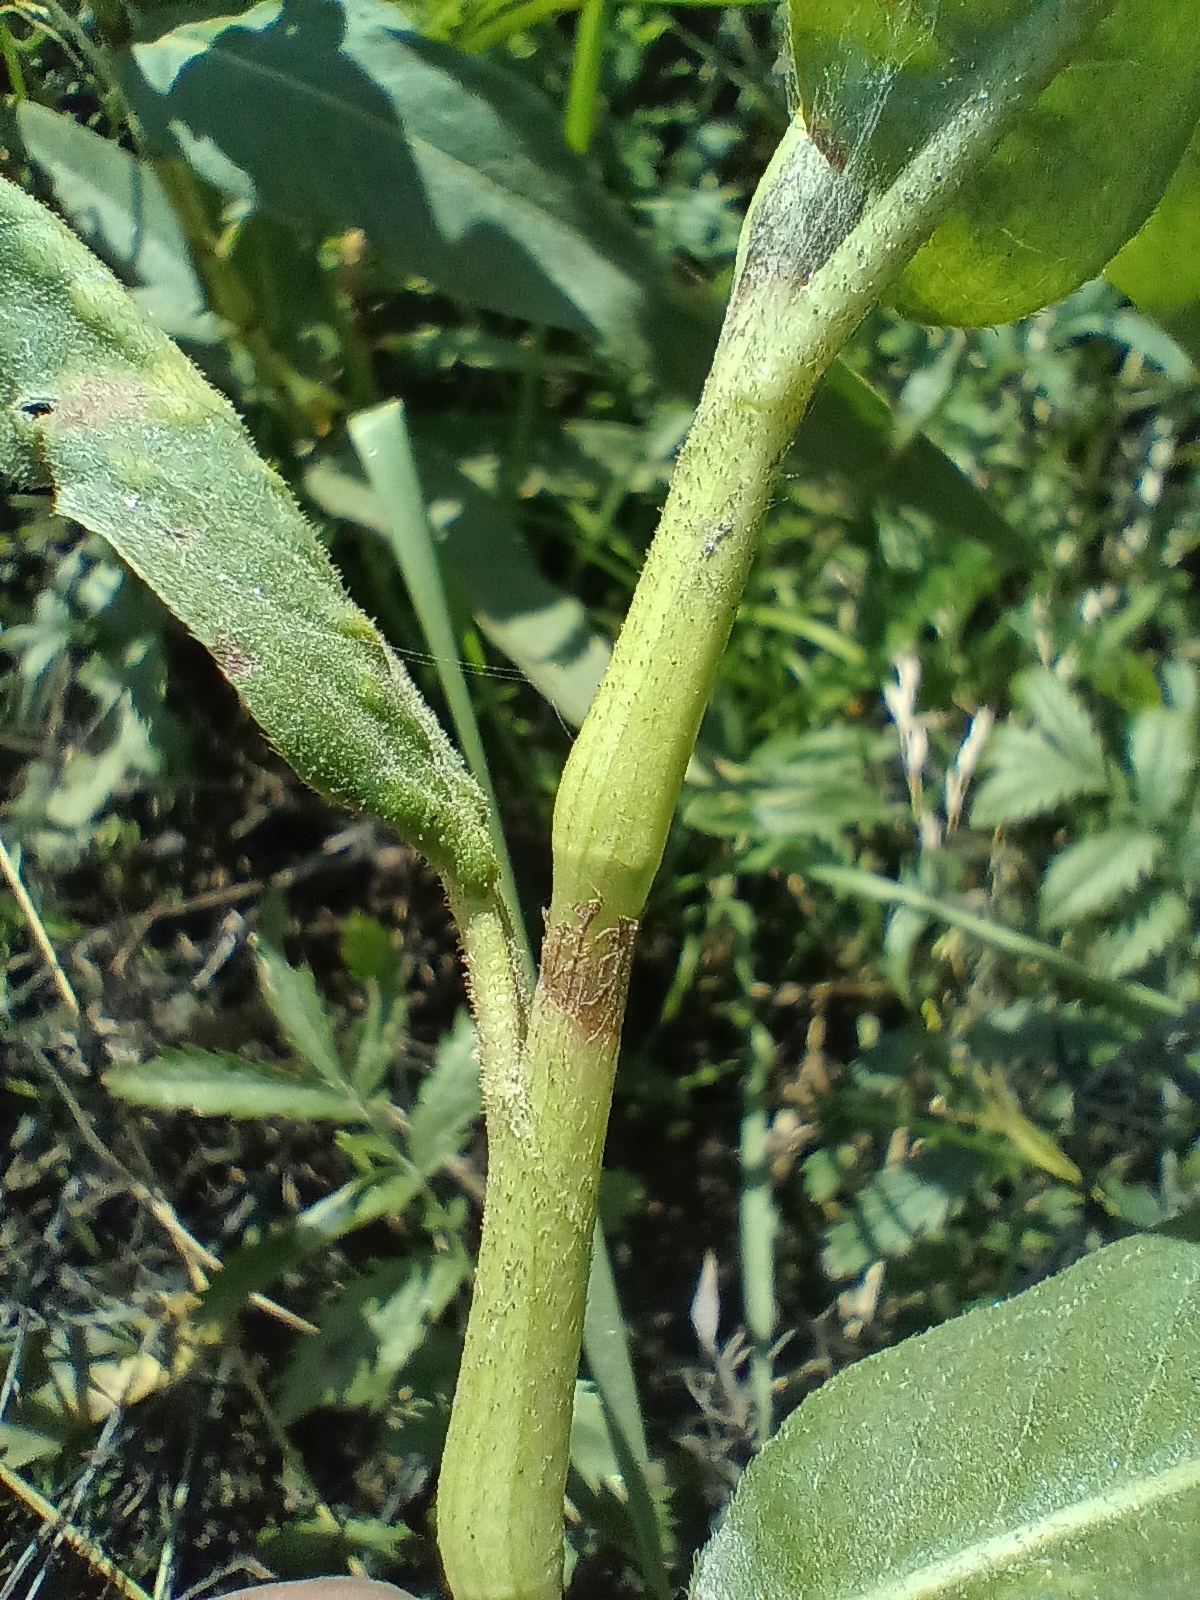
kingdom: Plantae
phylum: Tracheophyta
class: Magnoliopsida
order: Caryophyllales
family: Polygonaceae
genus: Persicaria
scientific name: Persicaria amphibia
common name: Amphibious bistort
